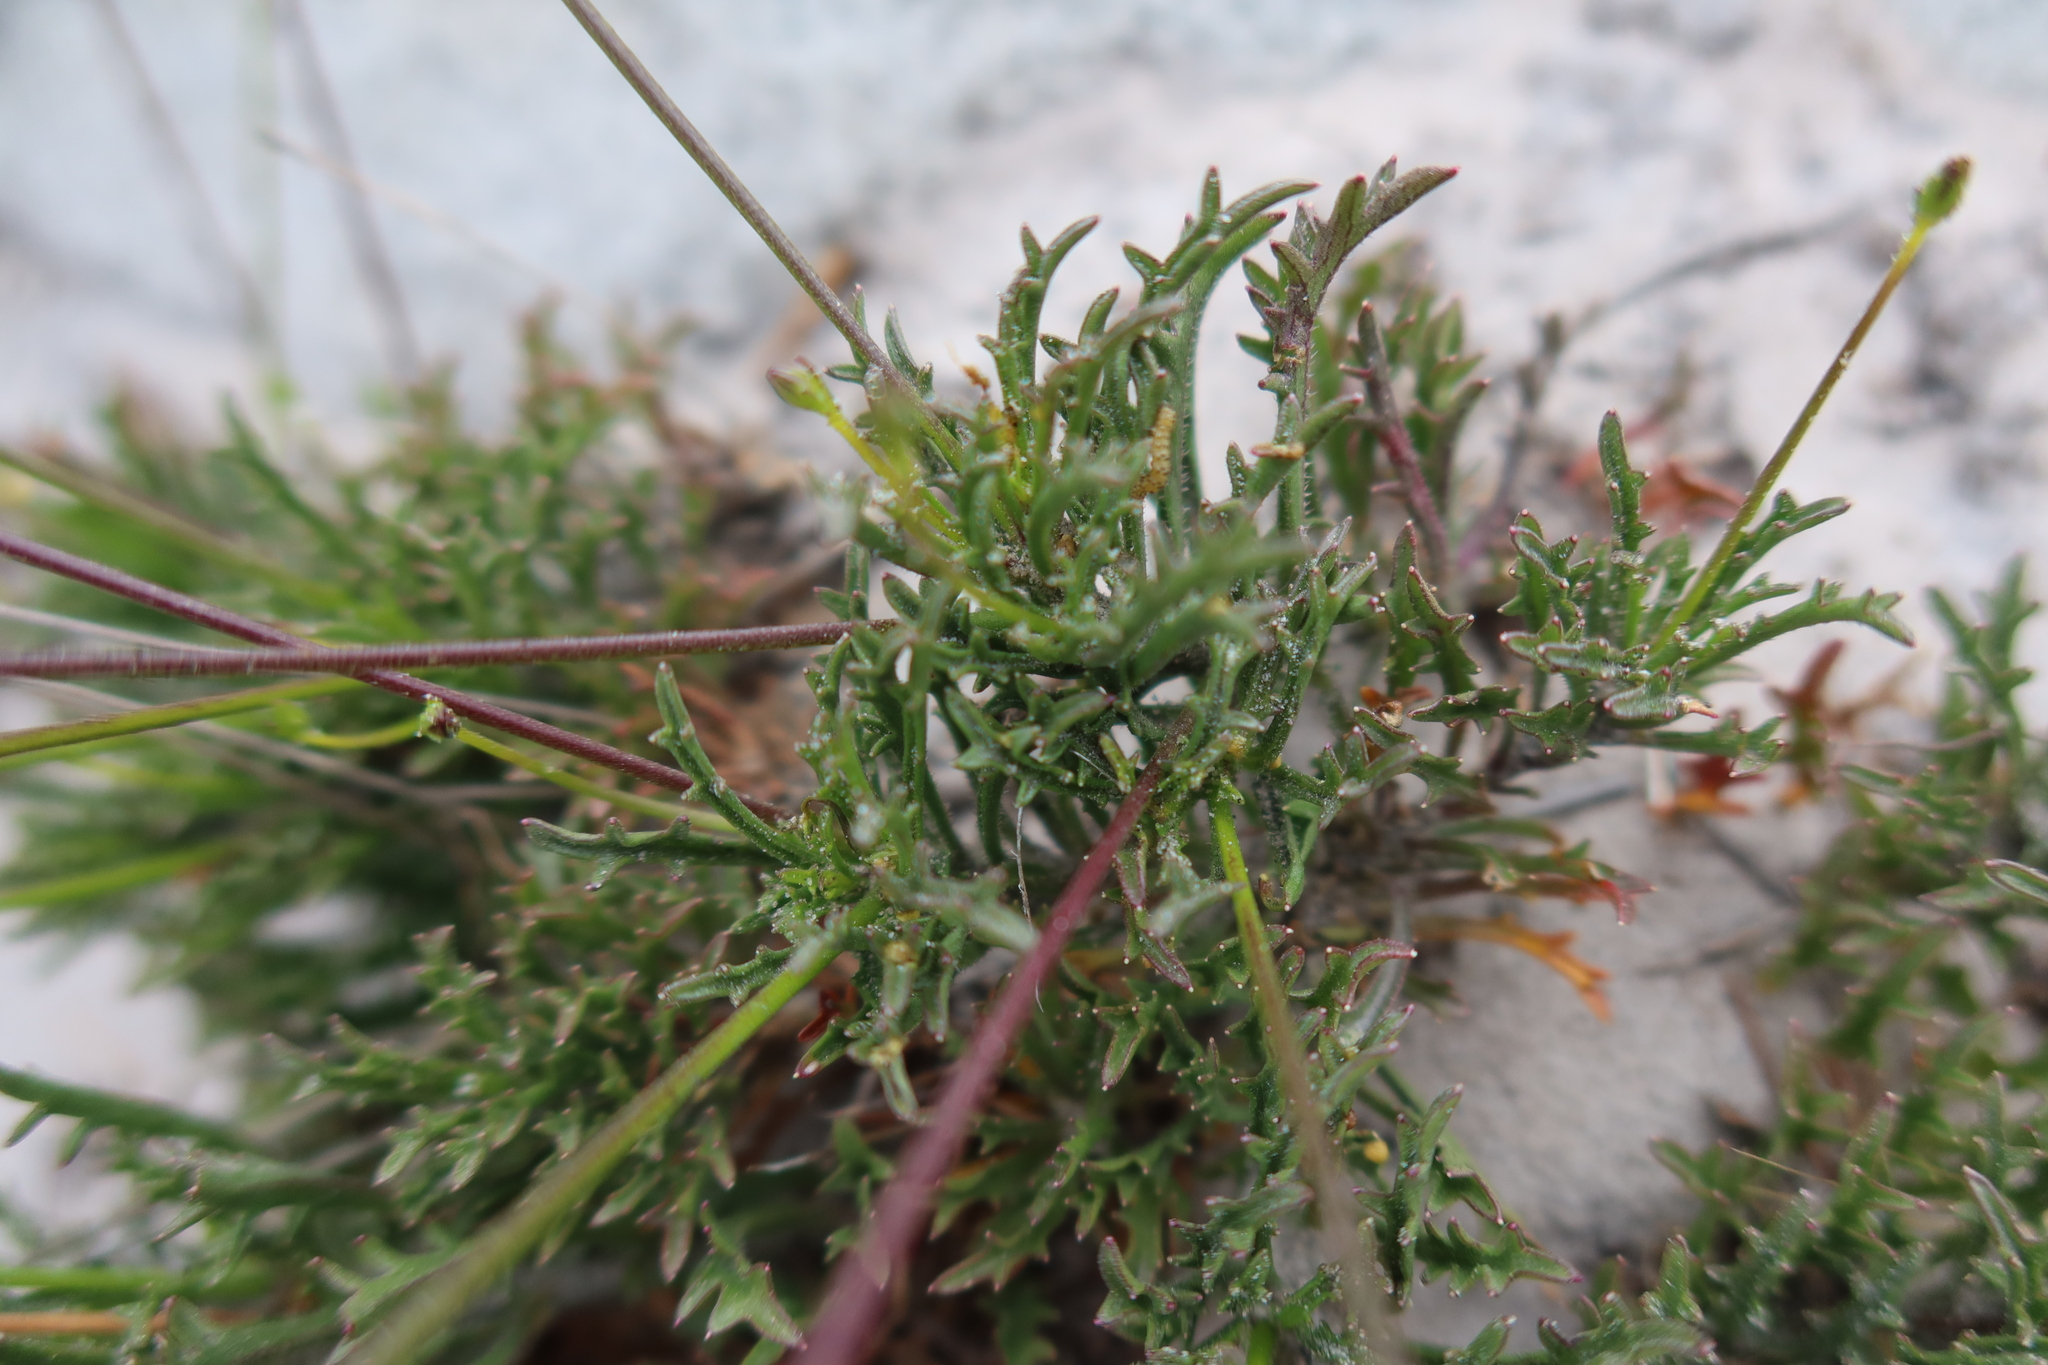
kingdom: Plantae
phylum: Tracheophyta
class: Magnoliopsida
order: Asterales
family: Campanulaceae
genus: Lobelia
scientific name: Lobelia coronopifolia
